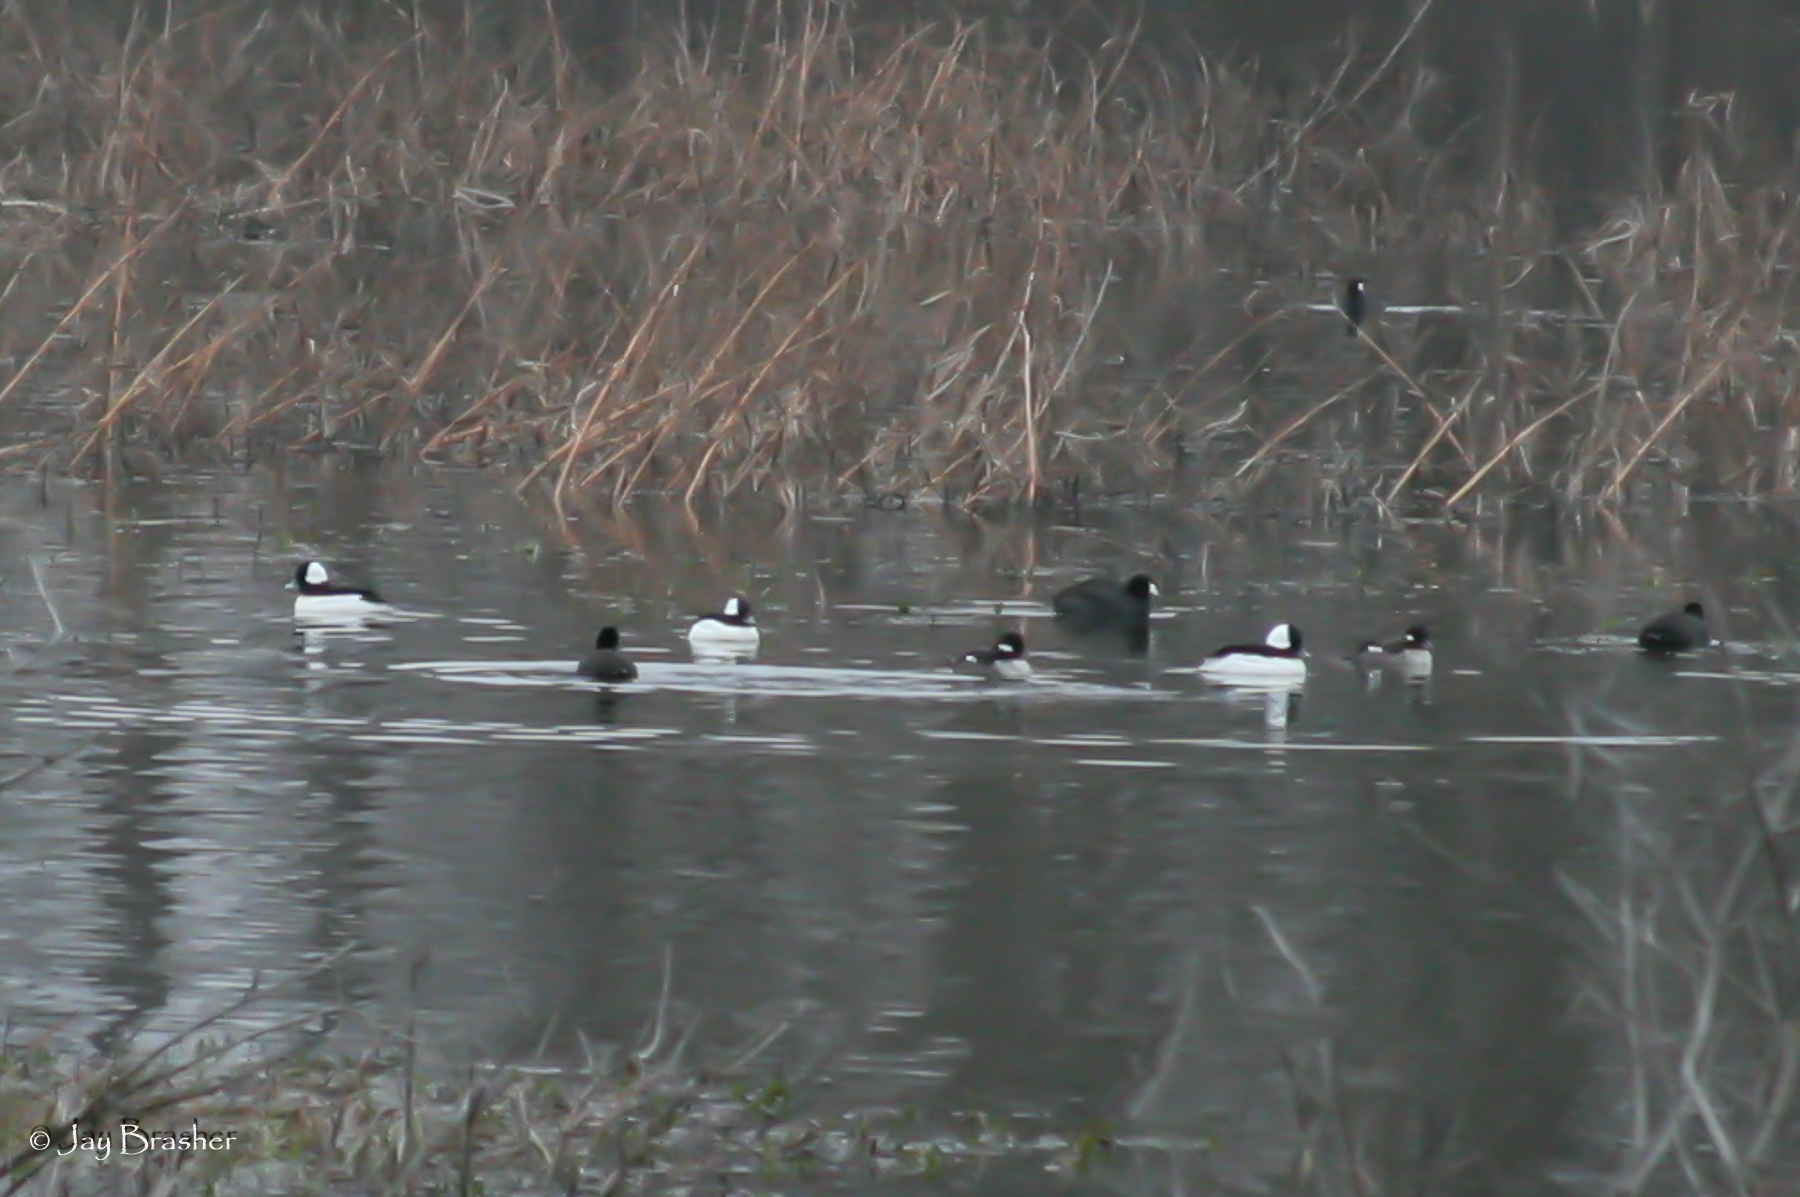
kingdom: Animalia
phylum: Chordata
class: Aves
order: Anseriformes
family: Anatidae
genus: Bucephala
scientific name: Bucephala albeola
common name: Bufflehead
